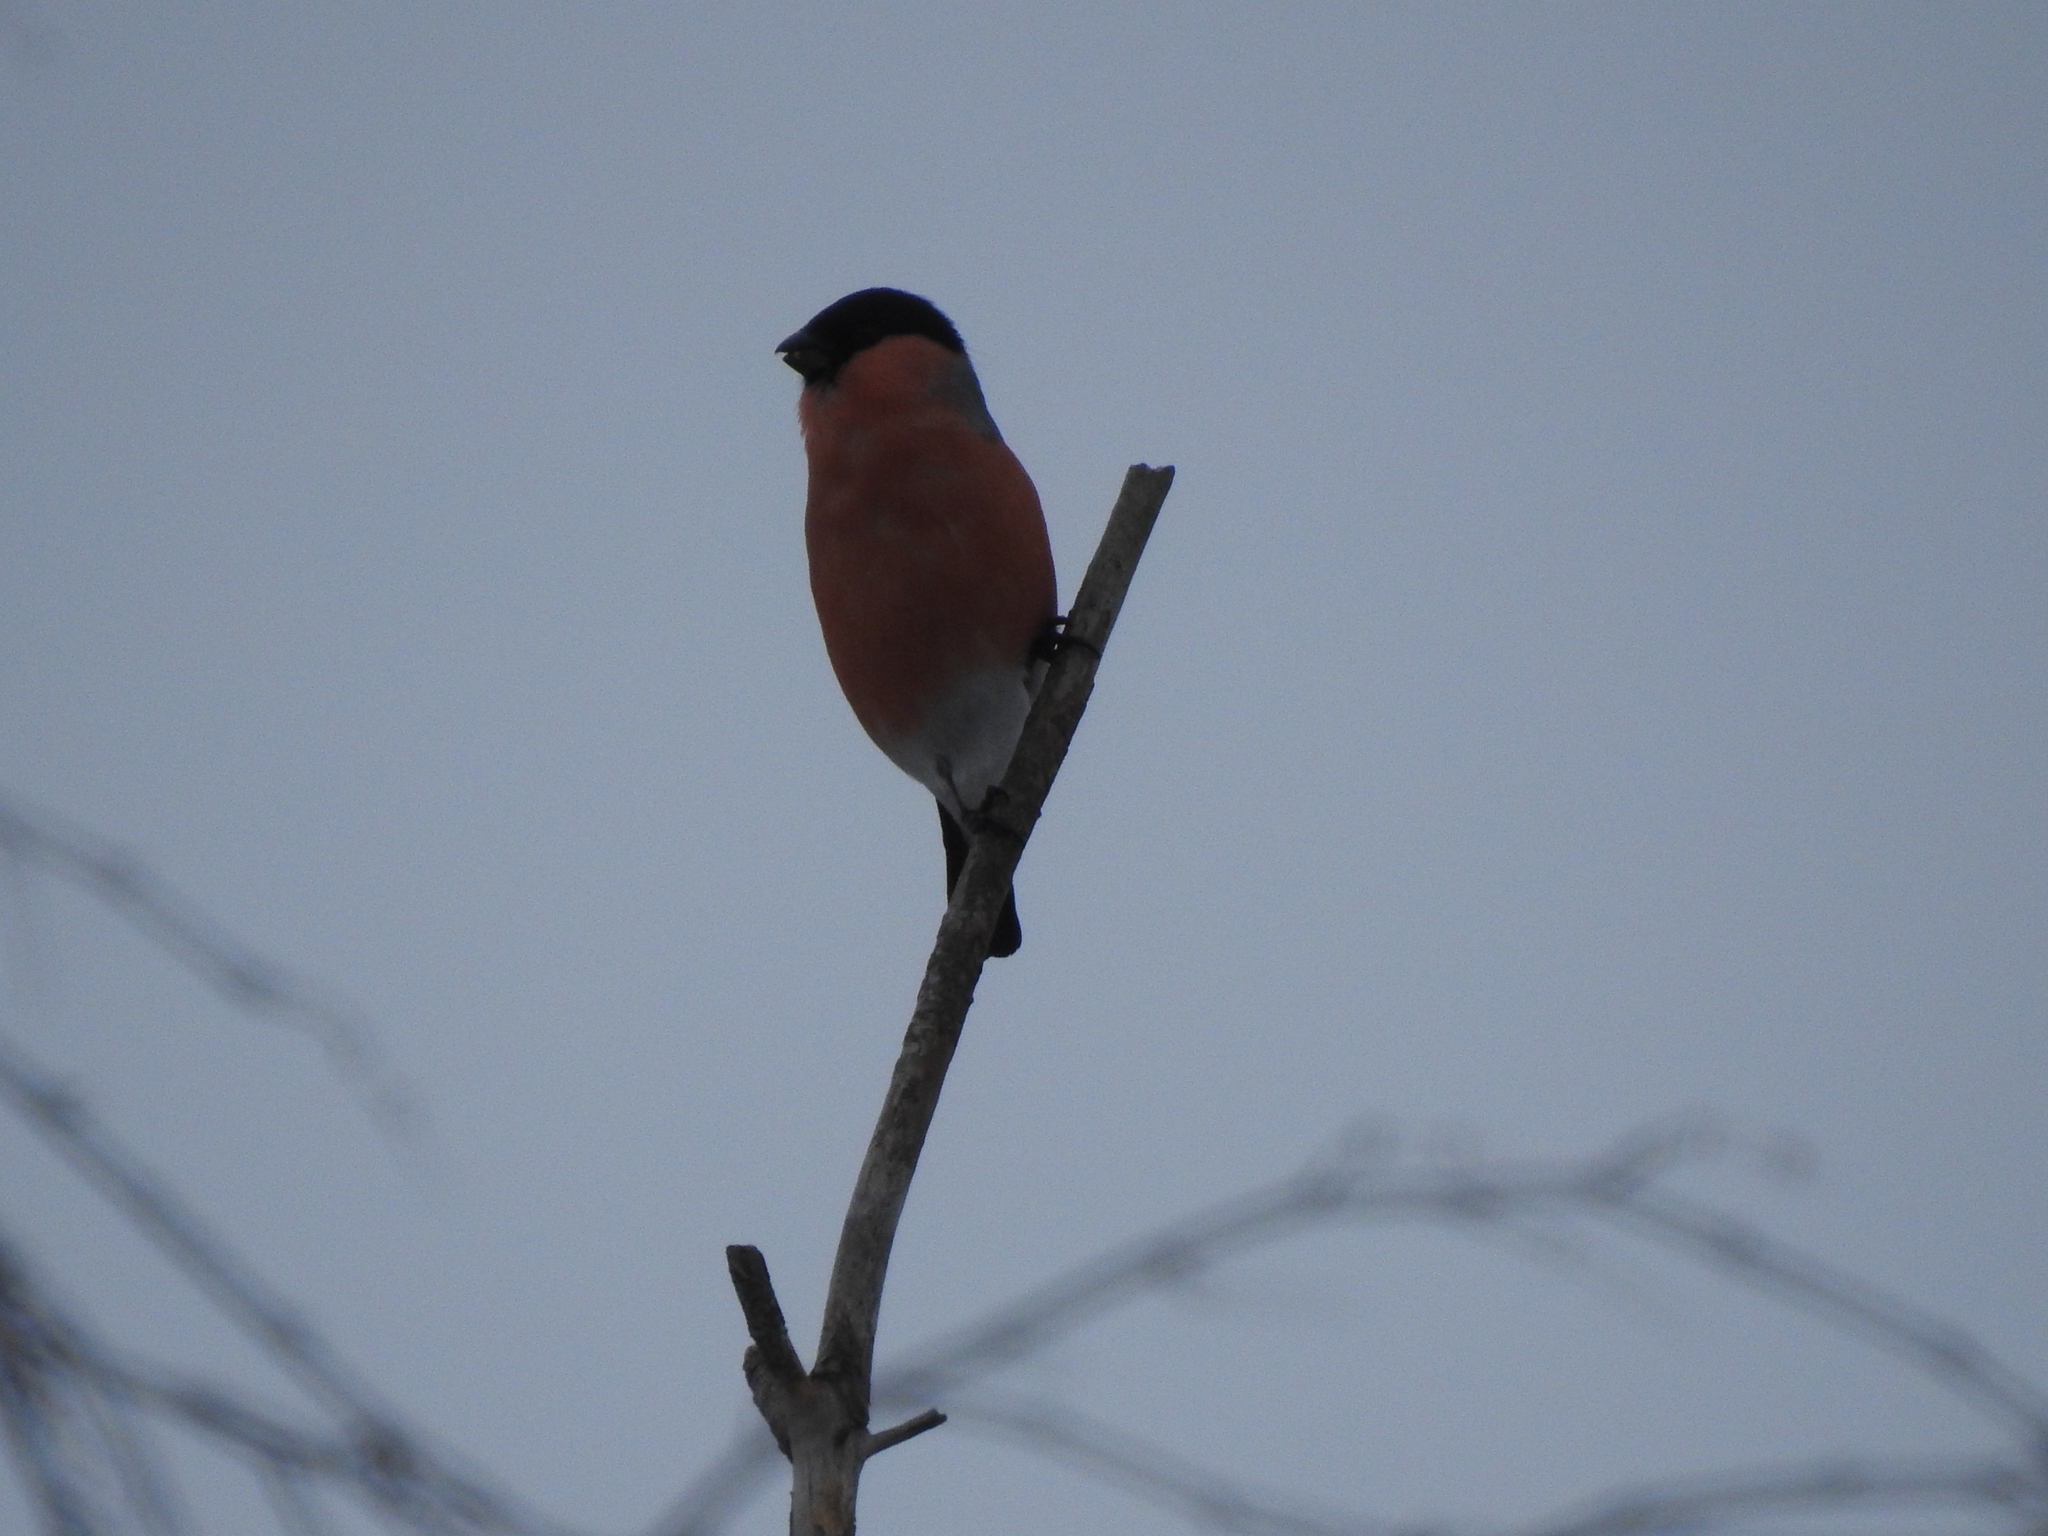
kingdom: Animalia
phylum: Chordata
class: Aves
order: Passeriformes
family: Fringillidae
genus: Pyrrhula
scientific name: Pyrrhula pyrrhula
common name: Eurasian bullfinch
